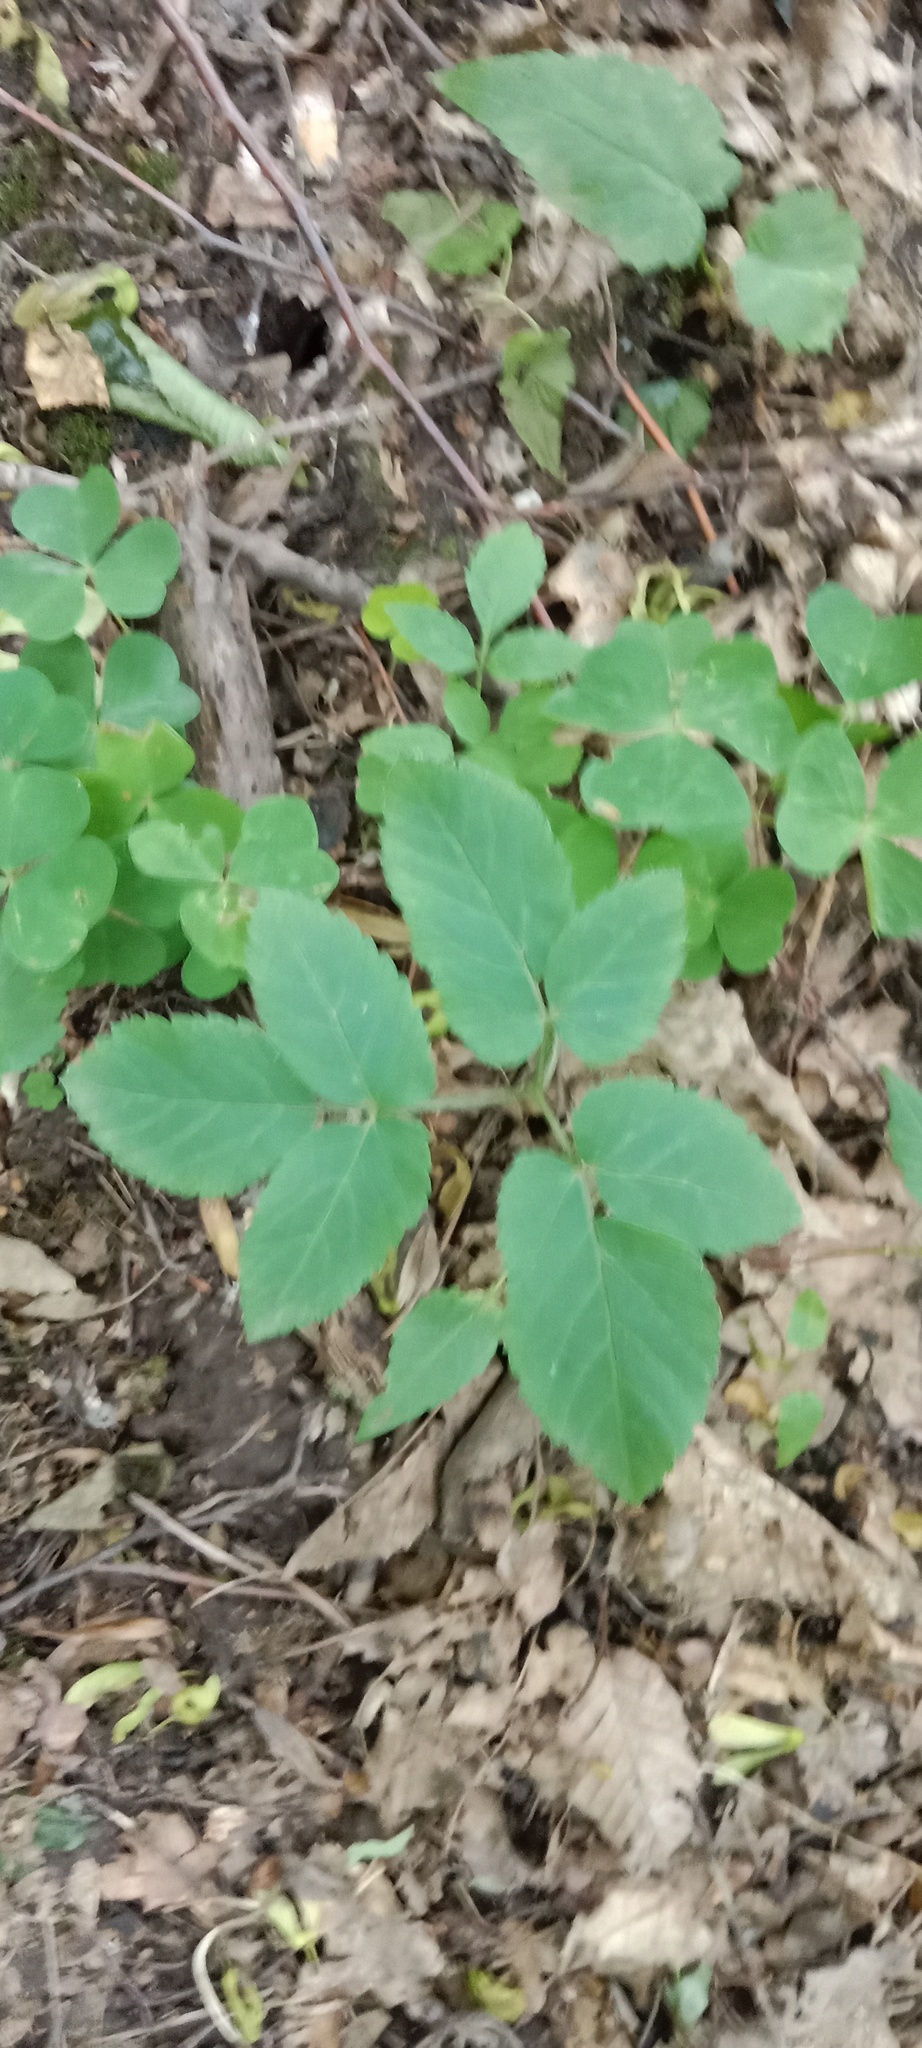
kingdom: Plantae
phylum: Tracheophyta
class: Magnoliopsida
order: Apiales
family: Apiaceae
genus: Aegopodium
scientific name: Aegopodium podagraria
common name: Ground-elder
